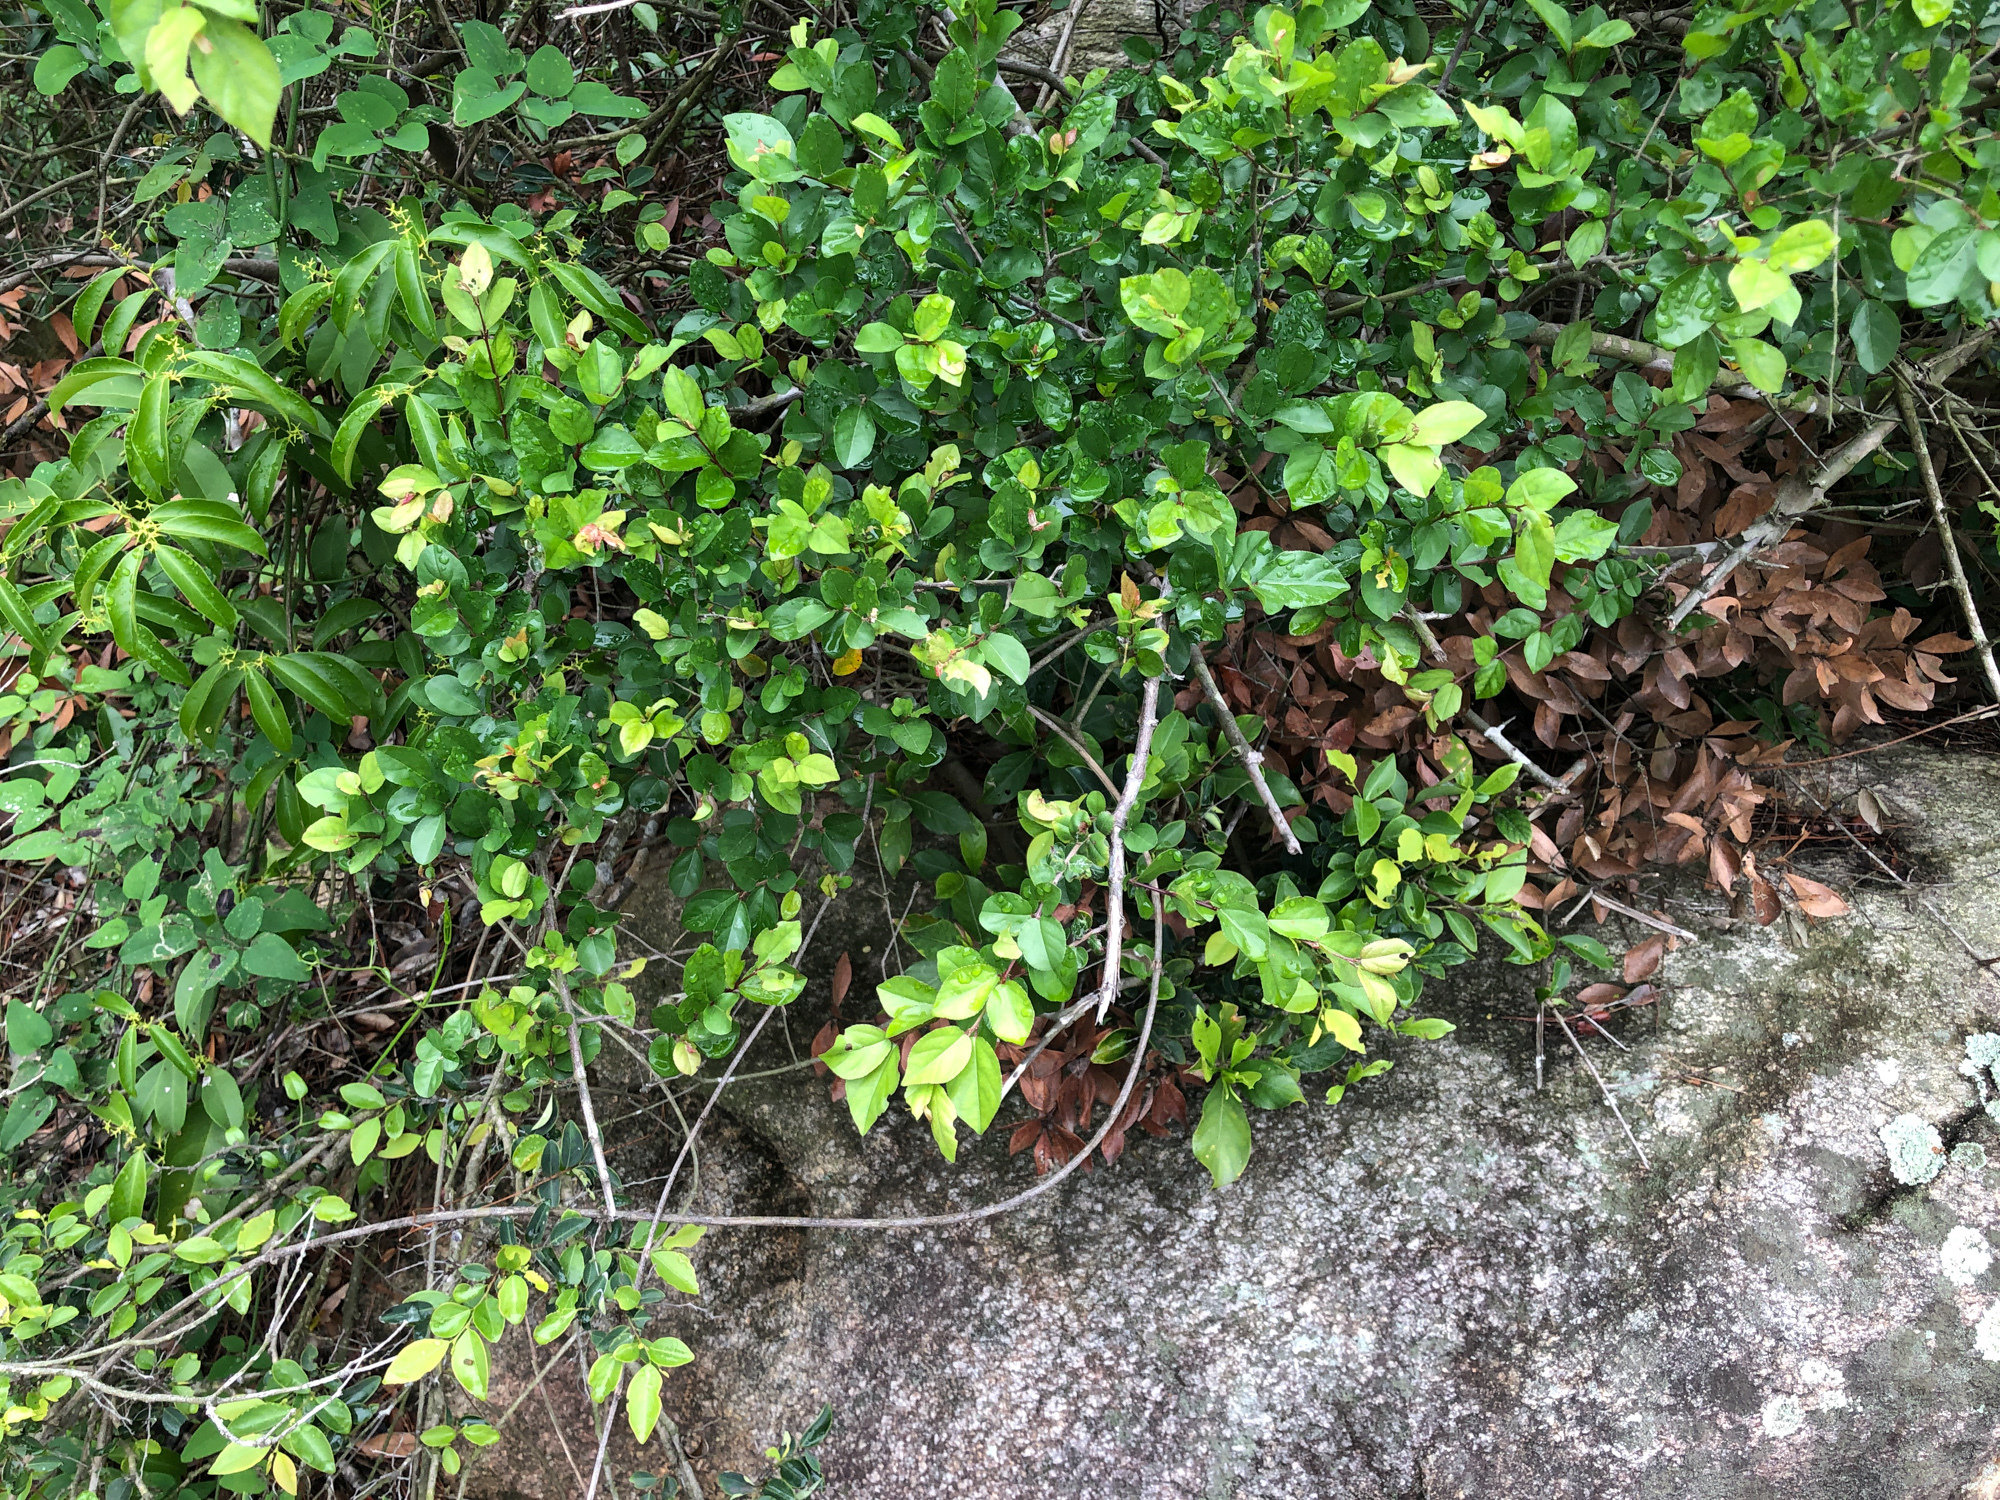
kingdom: Plantae
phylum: Tracheophyta
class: Magnoliopsida
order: Rosales
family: Rhamnaceae
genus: Sageretia
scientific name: Sageretia thea
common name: Pauper's-tea
